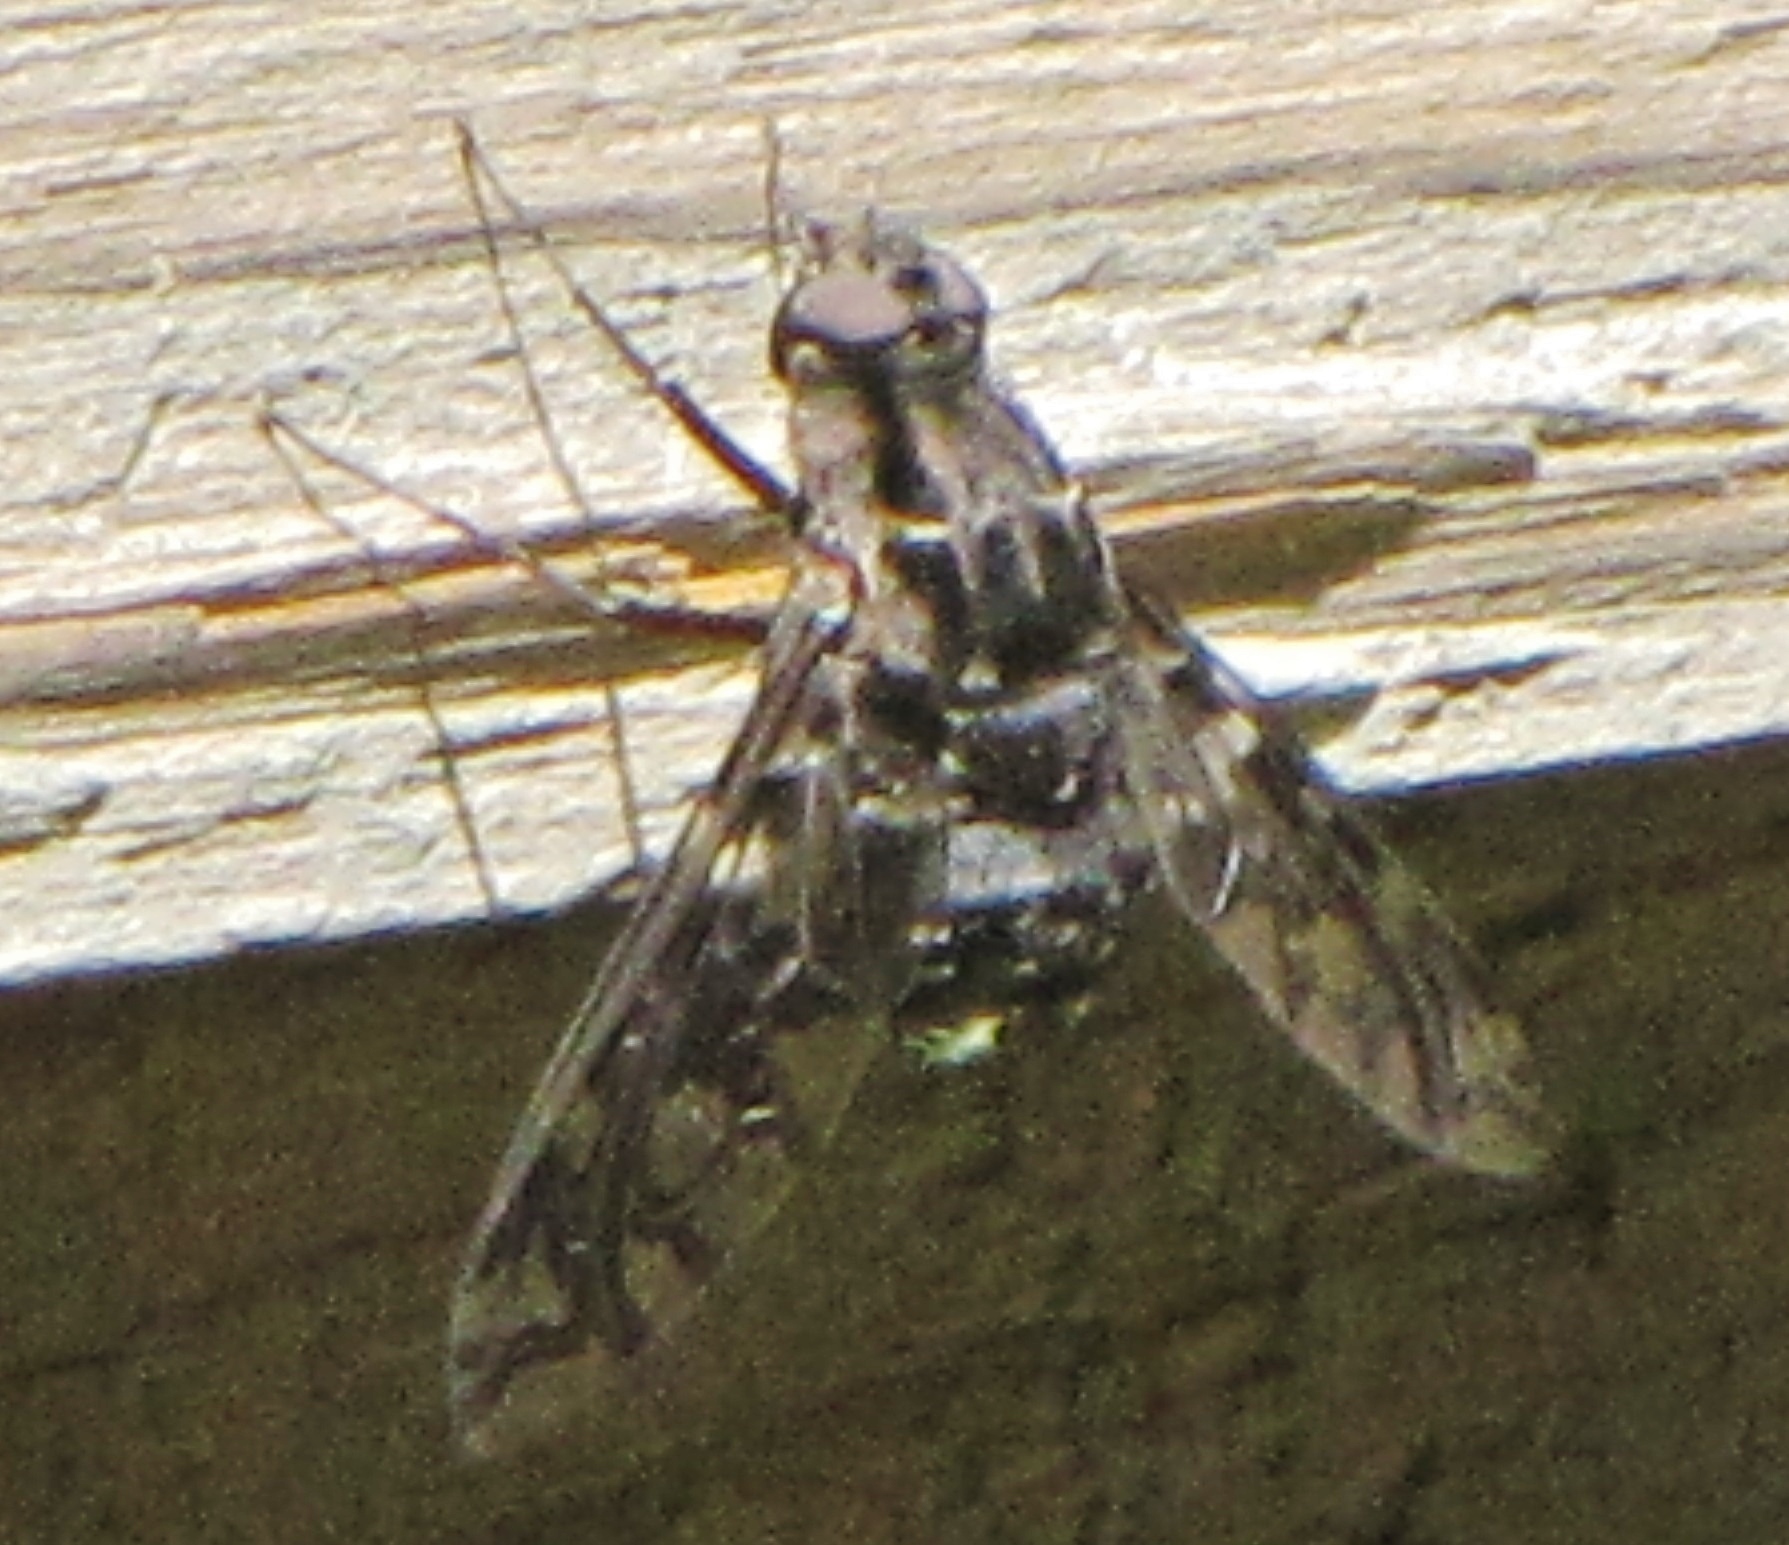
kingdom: Animalia
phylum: Arthropoda
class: Insecta
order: Diptera
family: Bombyliidae
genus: Xenox
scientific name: Xenox tigrinus
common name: Tiger bee fly
